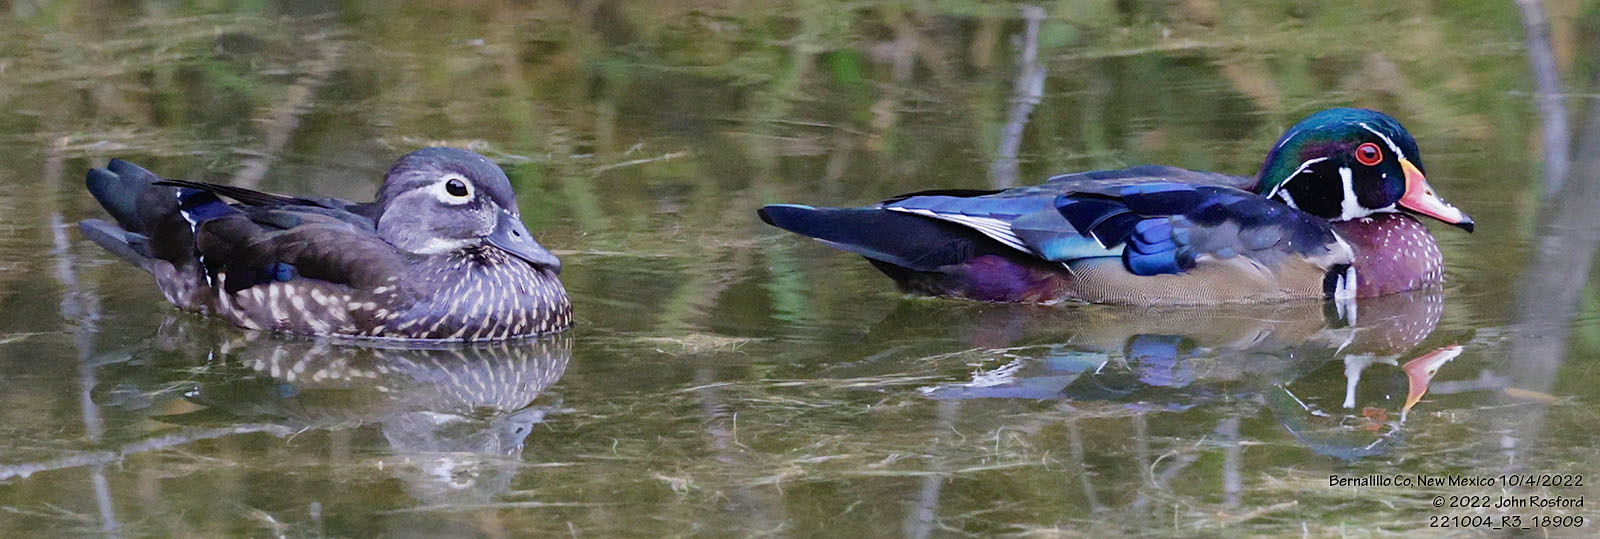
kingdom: Animalia
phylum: Chordata
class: Aves
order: Anseriformes
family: Anatidae
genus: Aix
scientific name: Aix sponsa
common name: Wood duck
